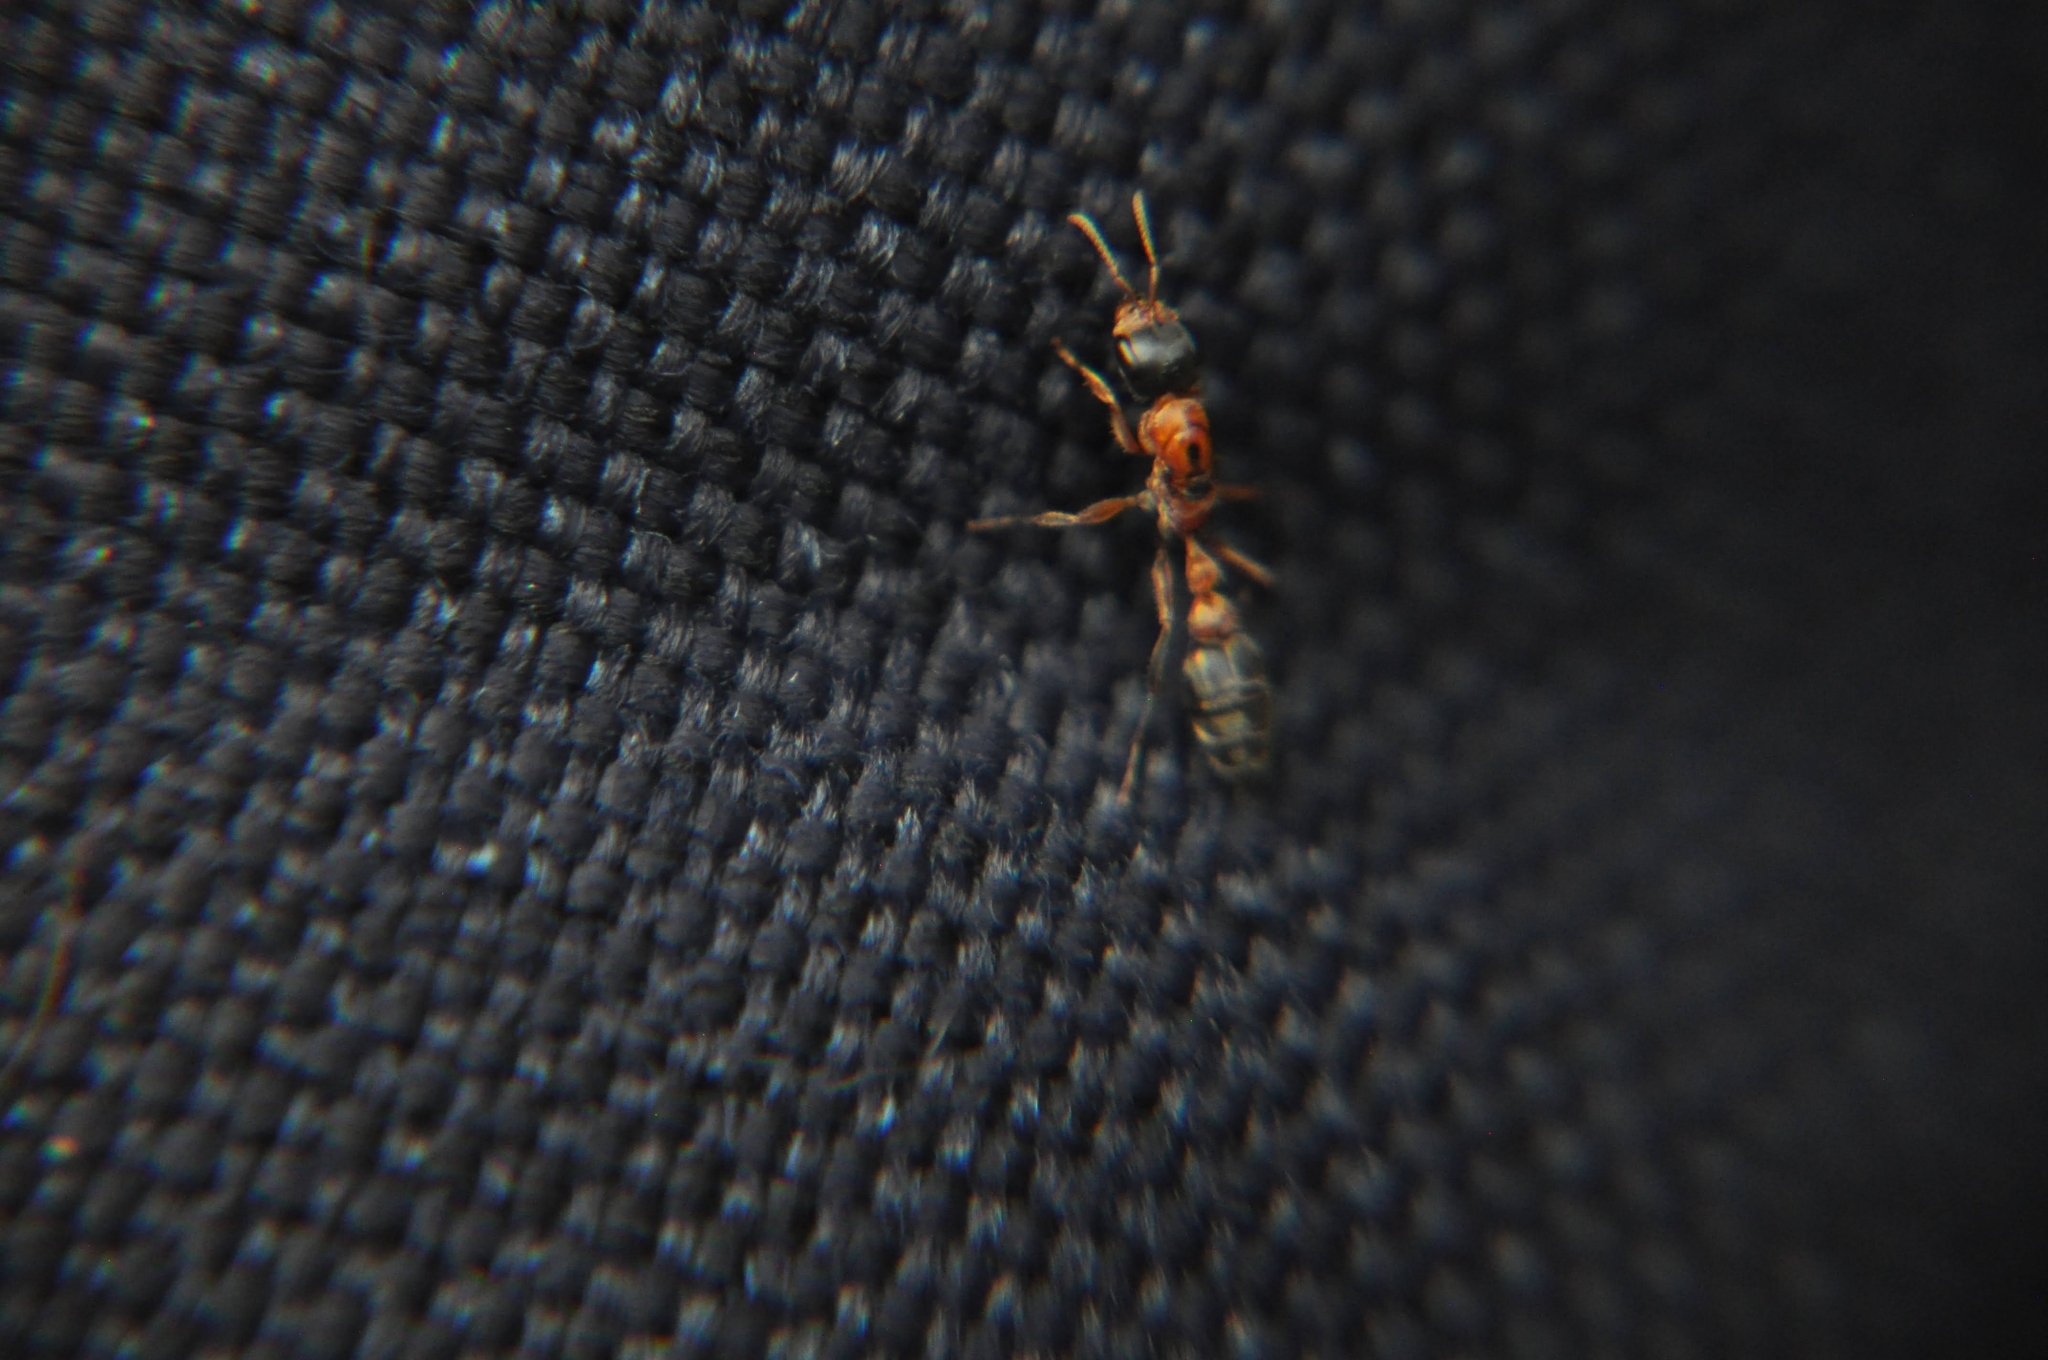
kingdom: Animalia
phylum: Arthropoda
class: Insecta
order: Hymenoptera
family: Formicidae
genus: Pseudomyrmex
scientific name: Pseudomyrmex gracilis
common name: Graceful twig ant
